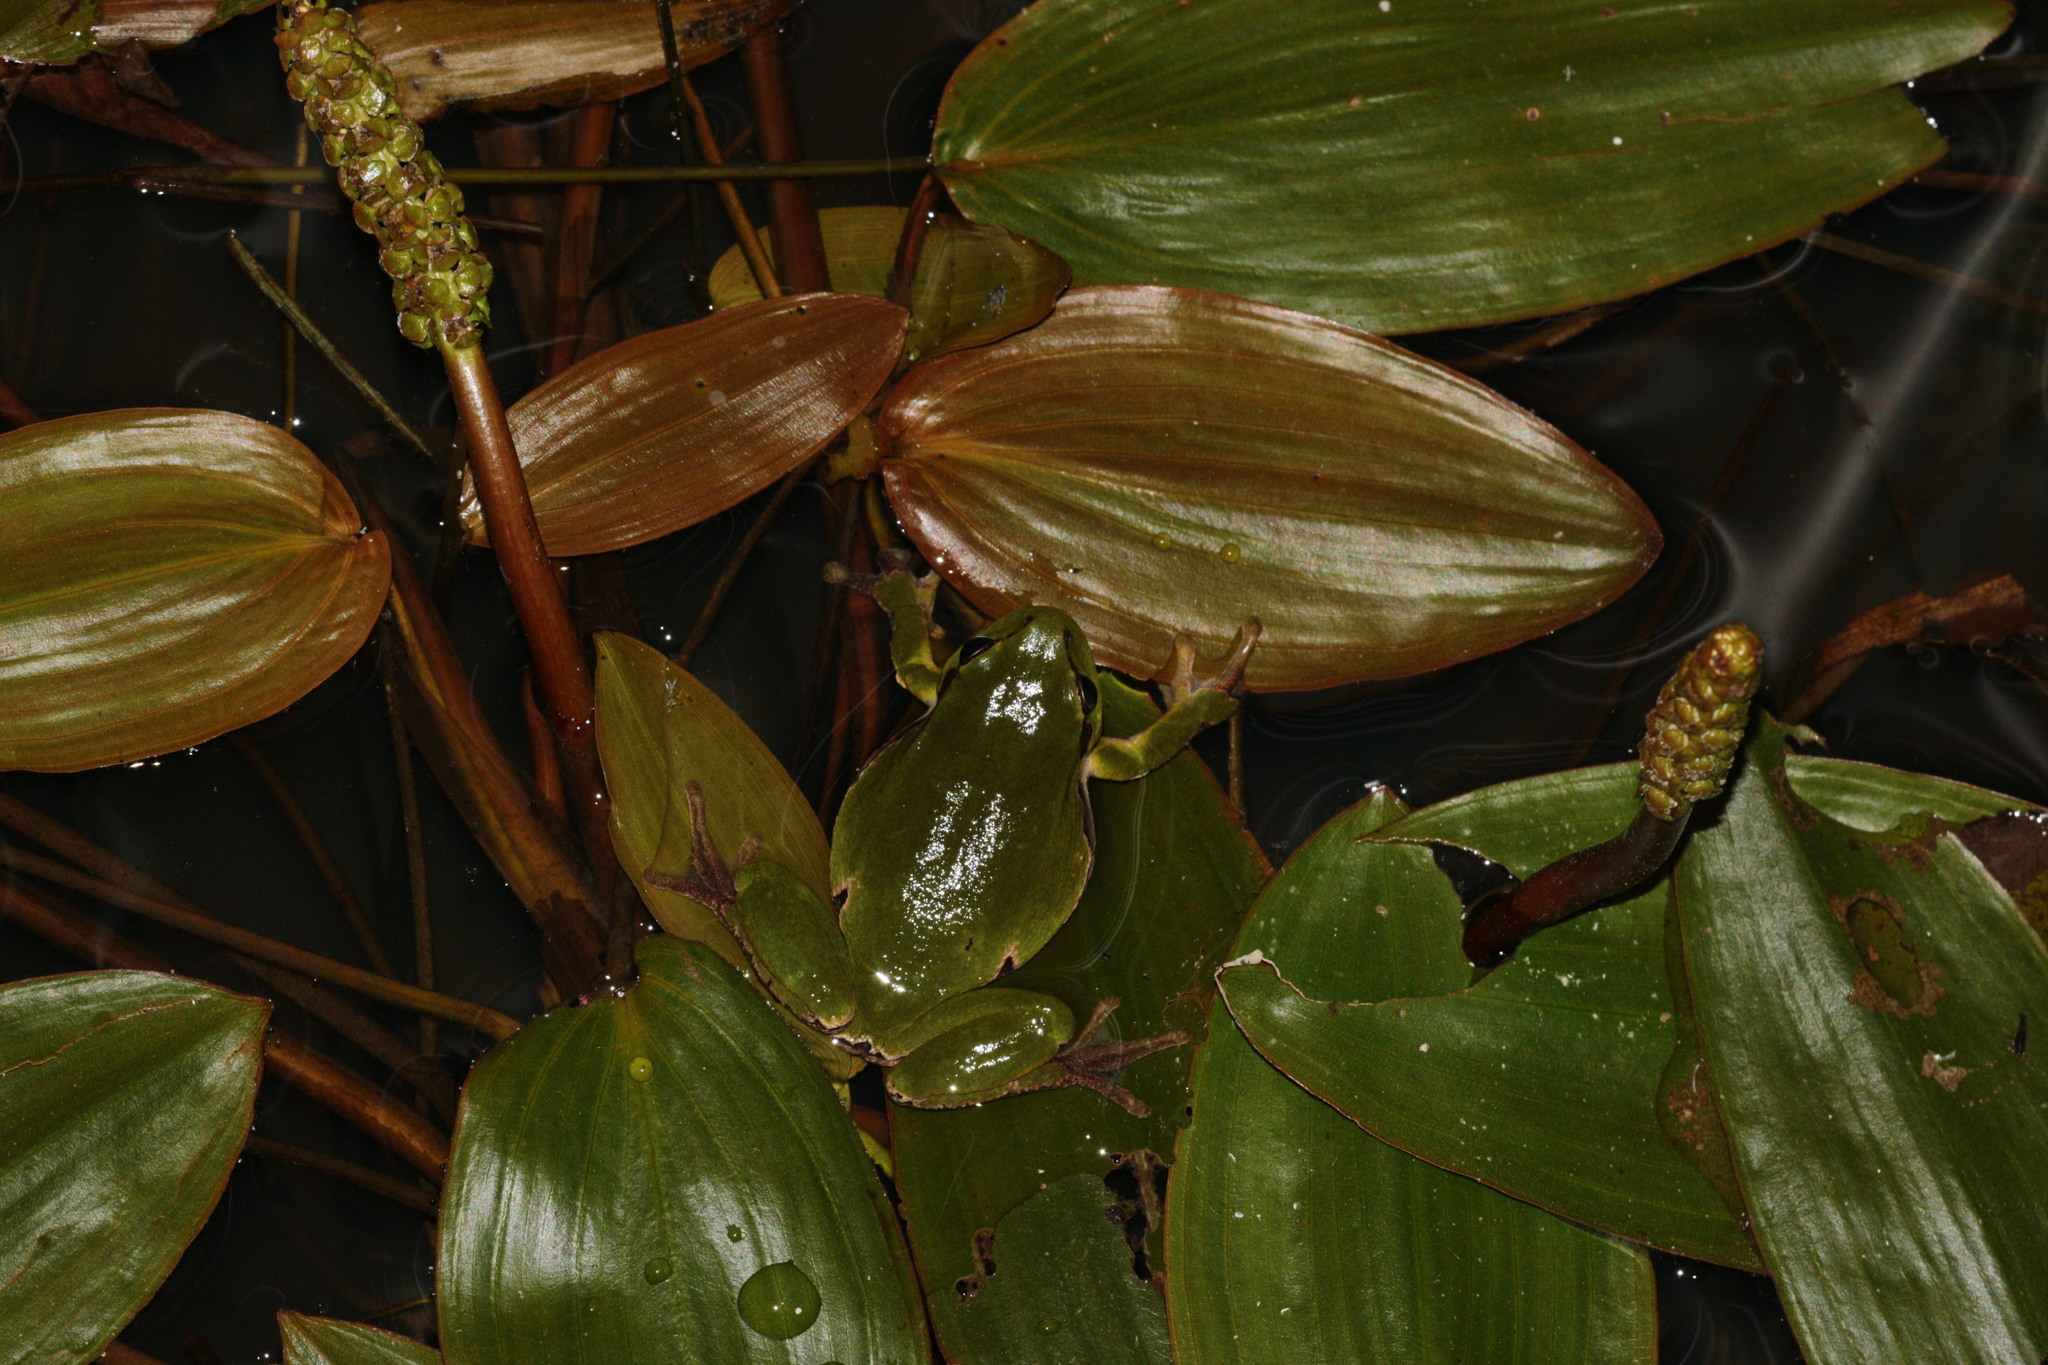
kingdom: Animalia
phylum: Chordata
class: Amphibia
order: Anura
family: Hylidae
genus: Hyla
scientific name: Hyla arborea
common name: Common tree frog
